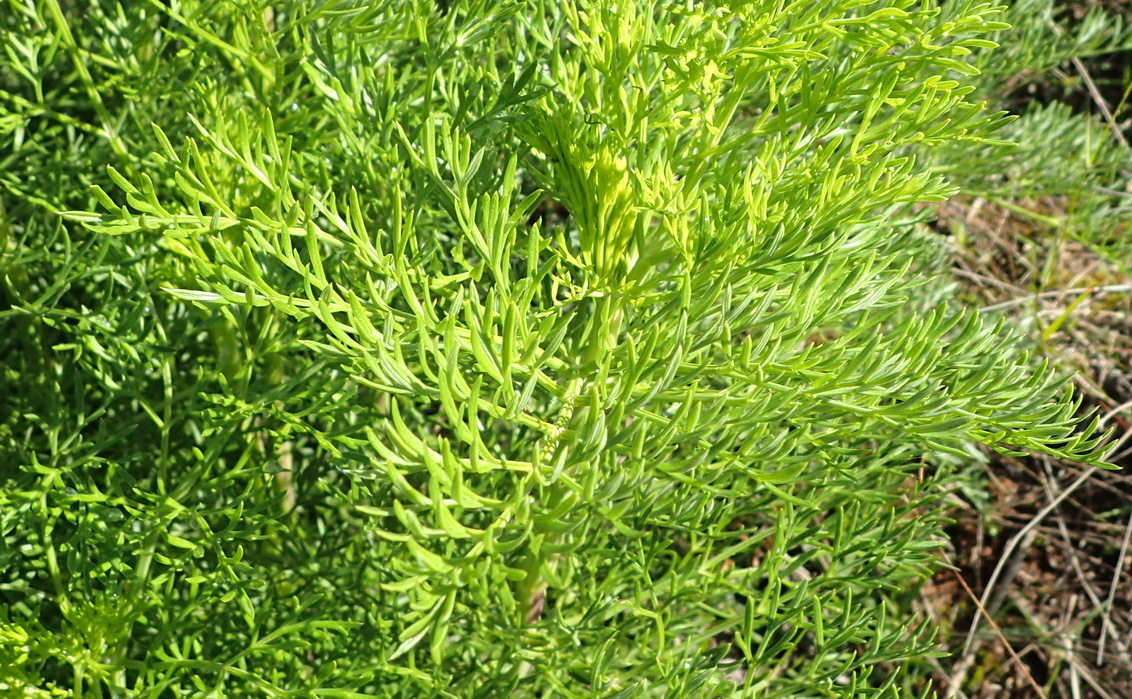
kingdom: Plantae
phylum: Tracheophyta
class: Magnoliopsida
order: Apiales
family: Apiaceae
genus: Notobubon
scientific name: Notobubon ferulaceum
